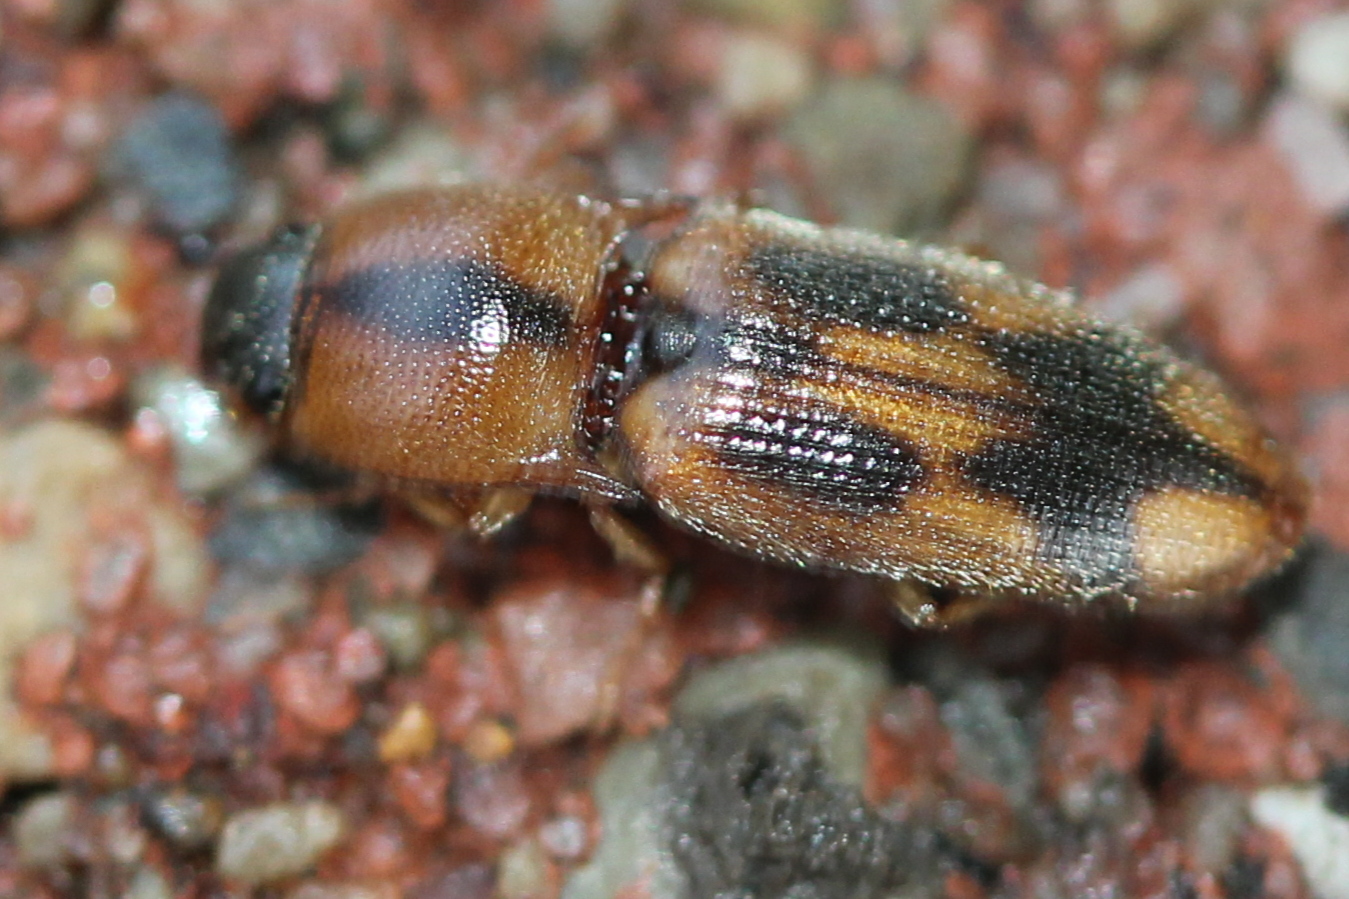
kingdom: Animalia
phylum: Arthropoda
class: Insecta
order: Coleoptera
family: Elateridae
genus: Aeolus
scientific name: Aeolus mellillus
